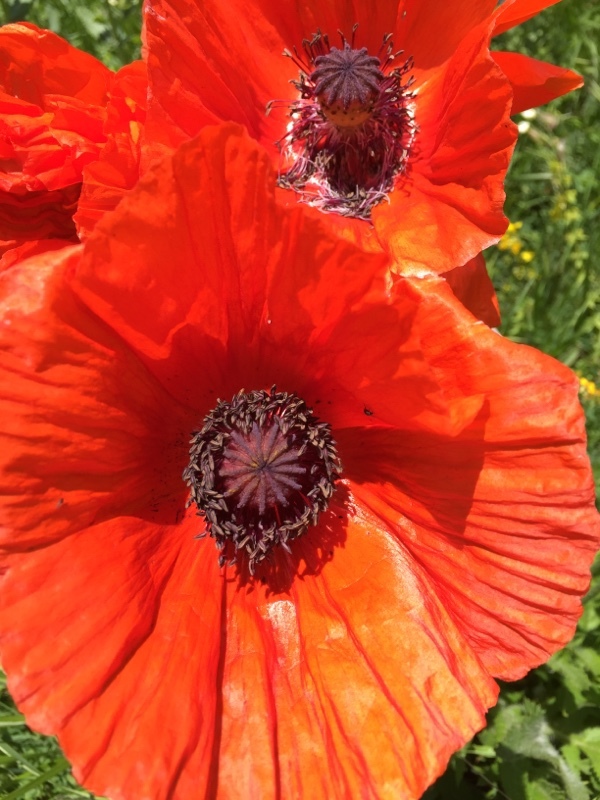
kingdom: Plantae
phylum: Tracheophyta
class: Magnoliopsida
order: Ranunculales
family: Papaveraceae
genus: Papaver
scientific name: Papaver orientale
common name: Oriental poppy
